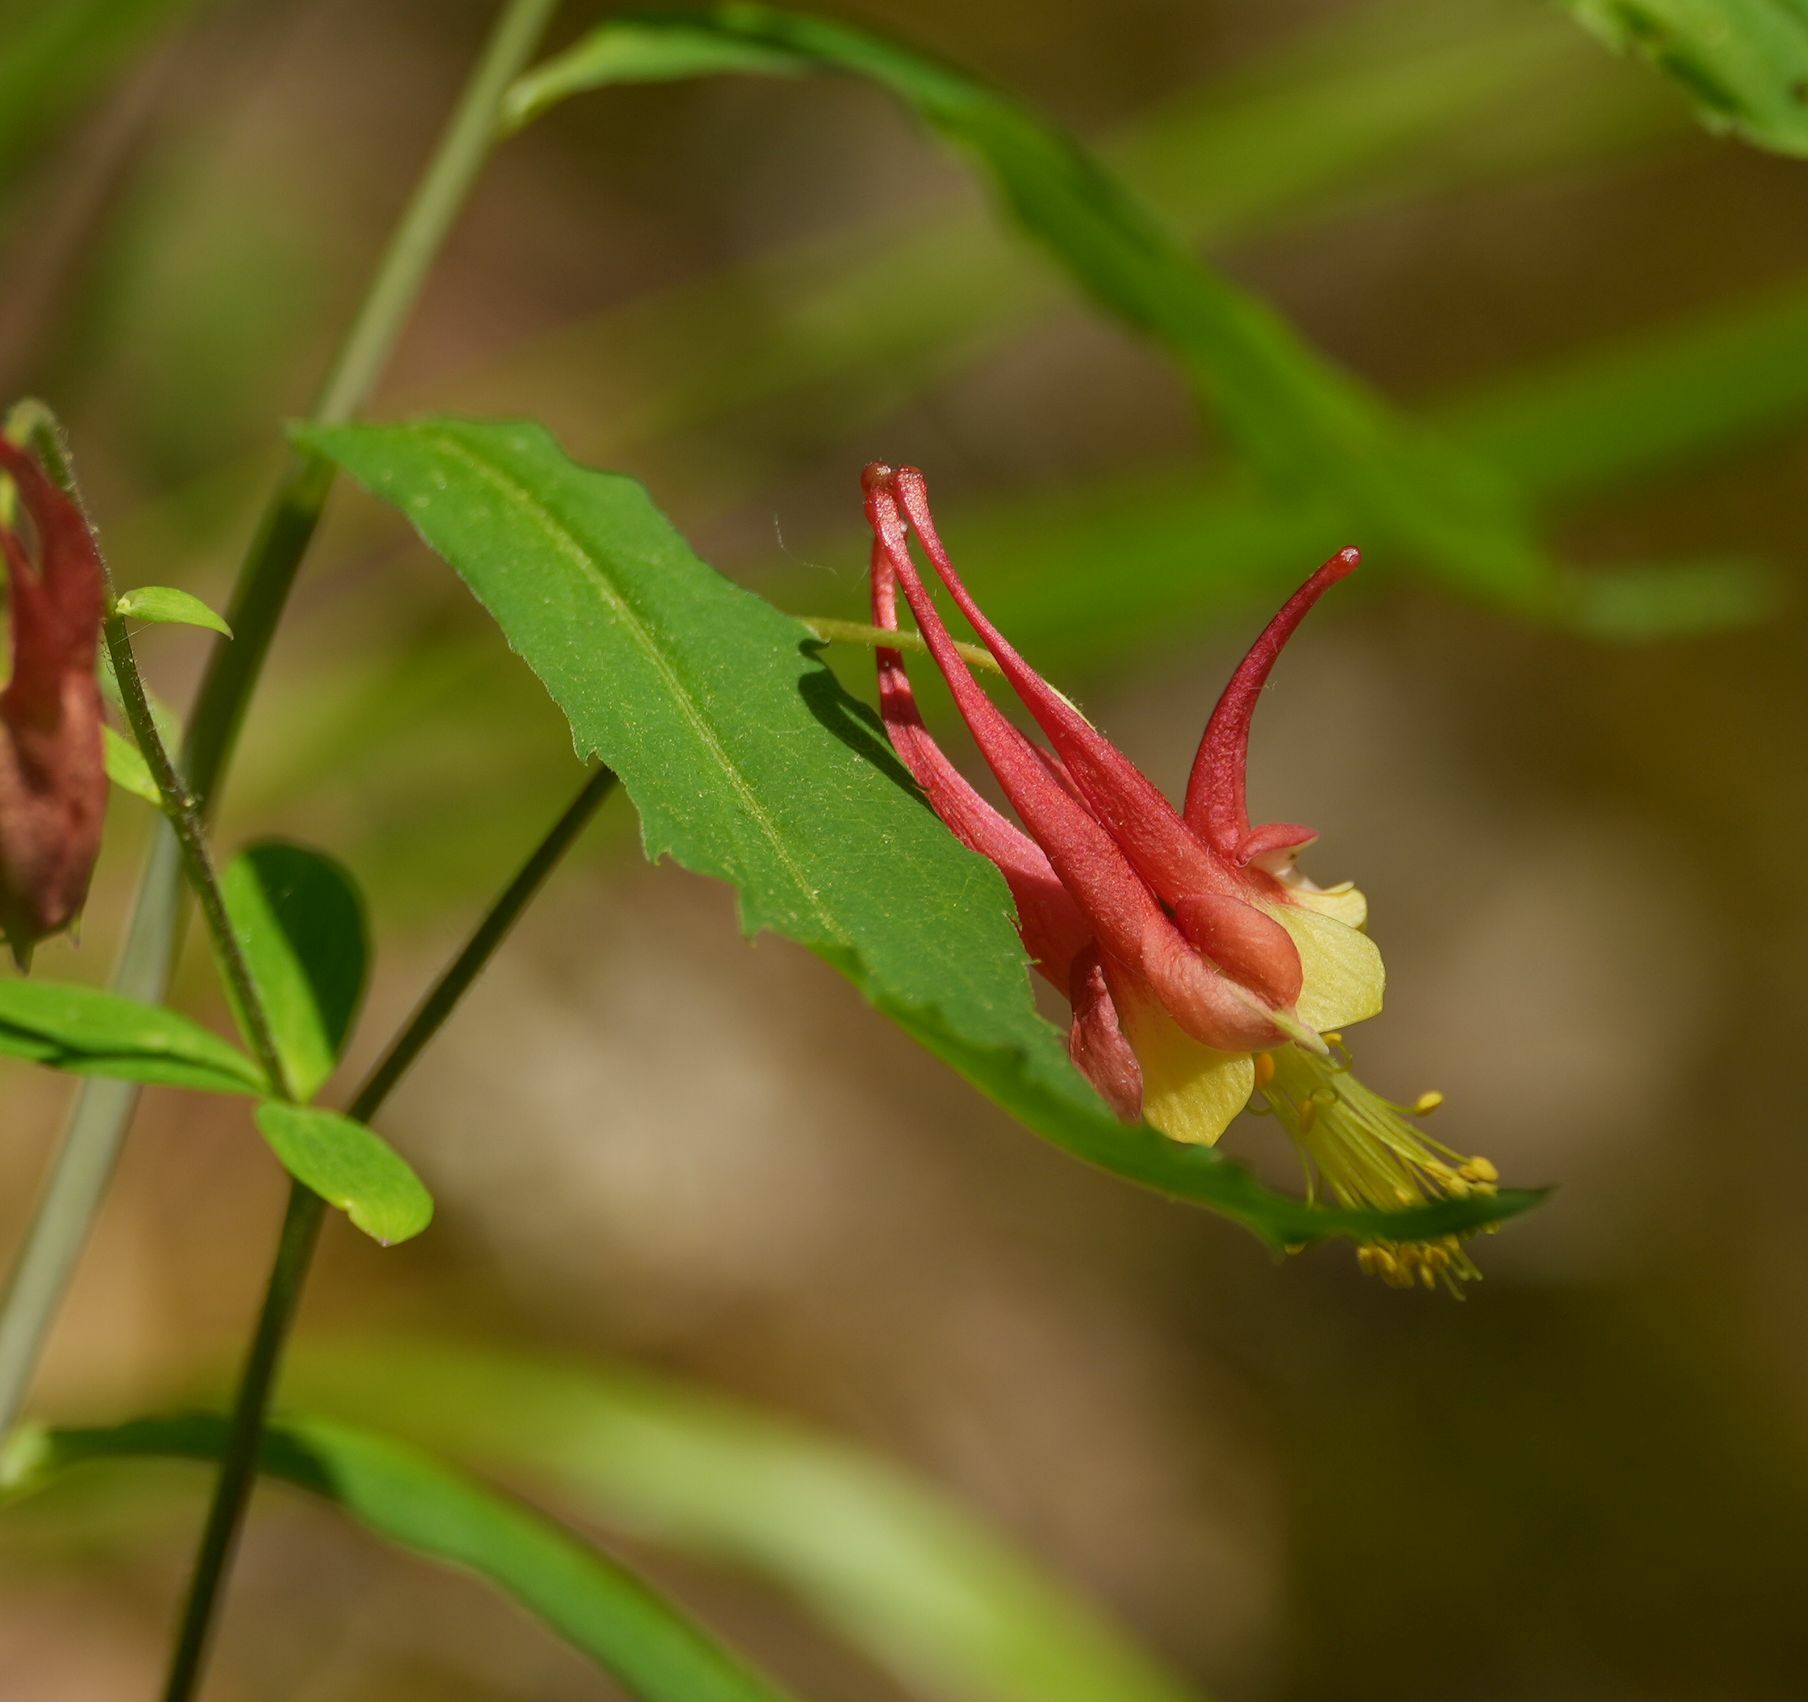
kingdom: Plantae
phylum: Tracheophyta
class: Magnoliopsida
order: Ranunculales
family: Ranunculaceae
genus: Aquilegia
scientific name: Aquilegia canadensis
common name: American columbine
